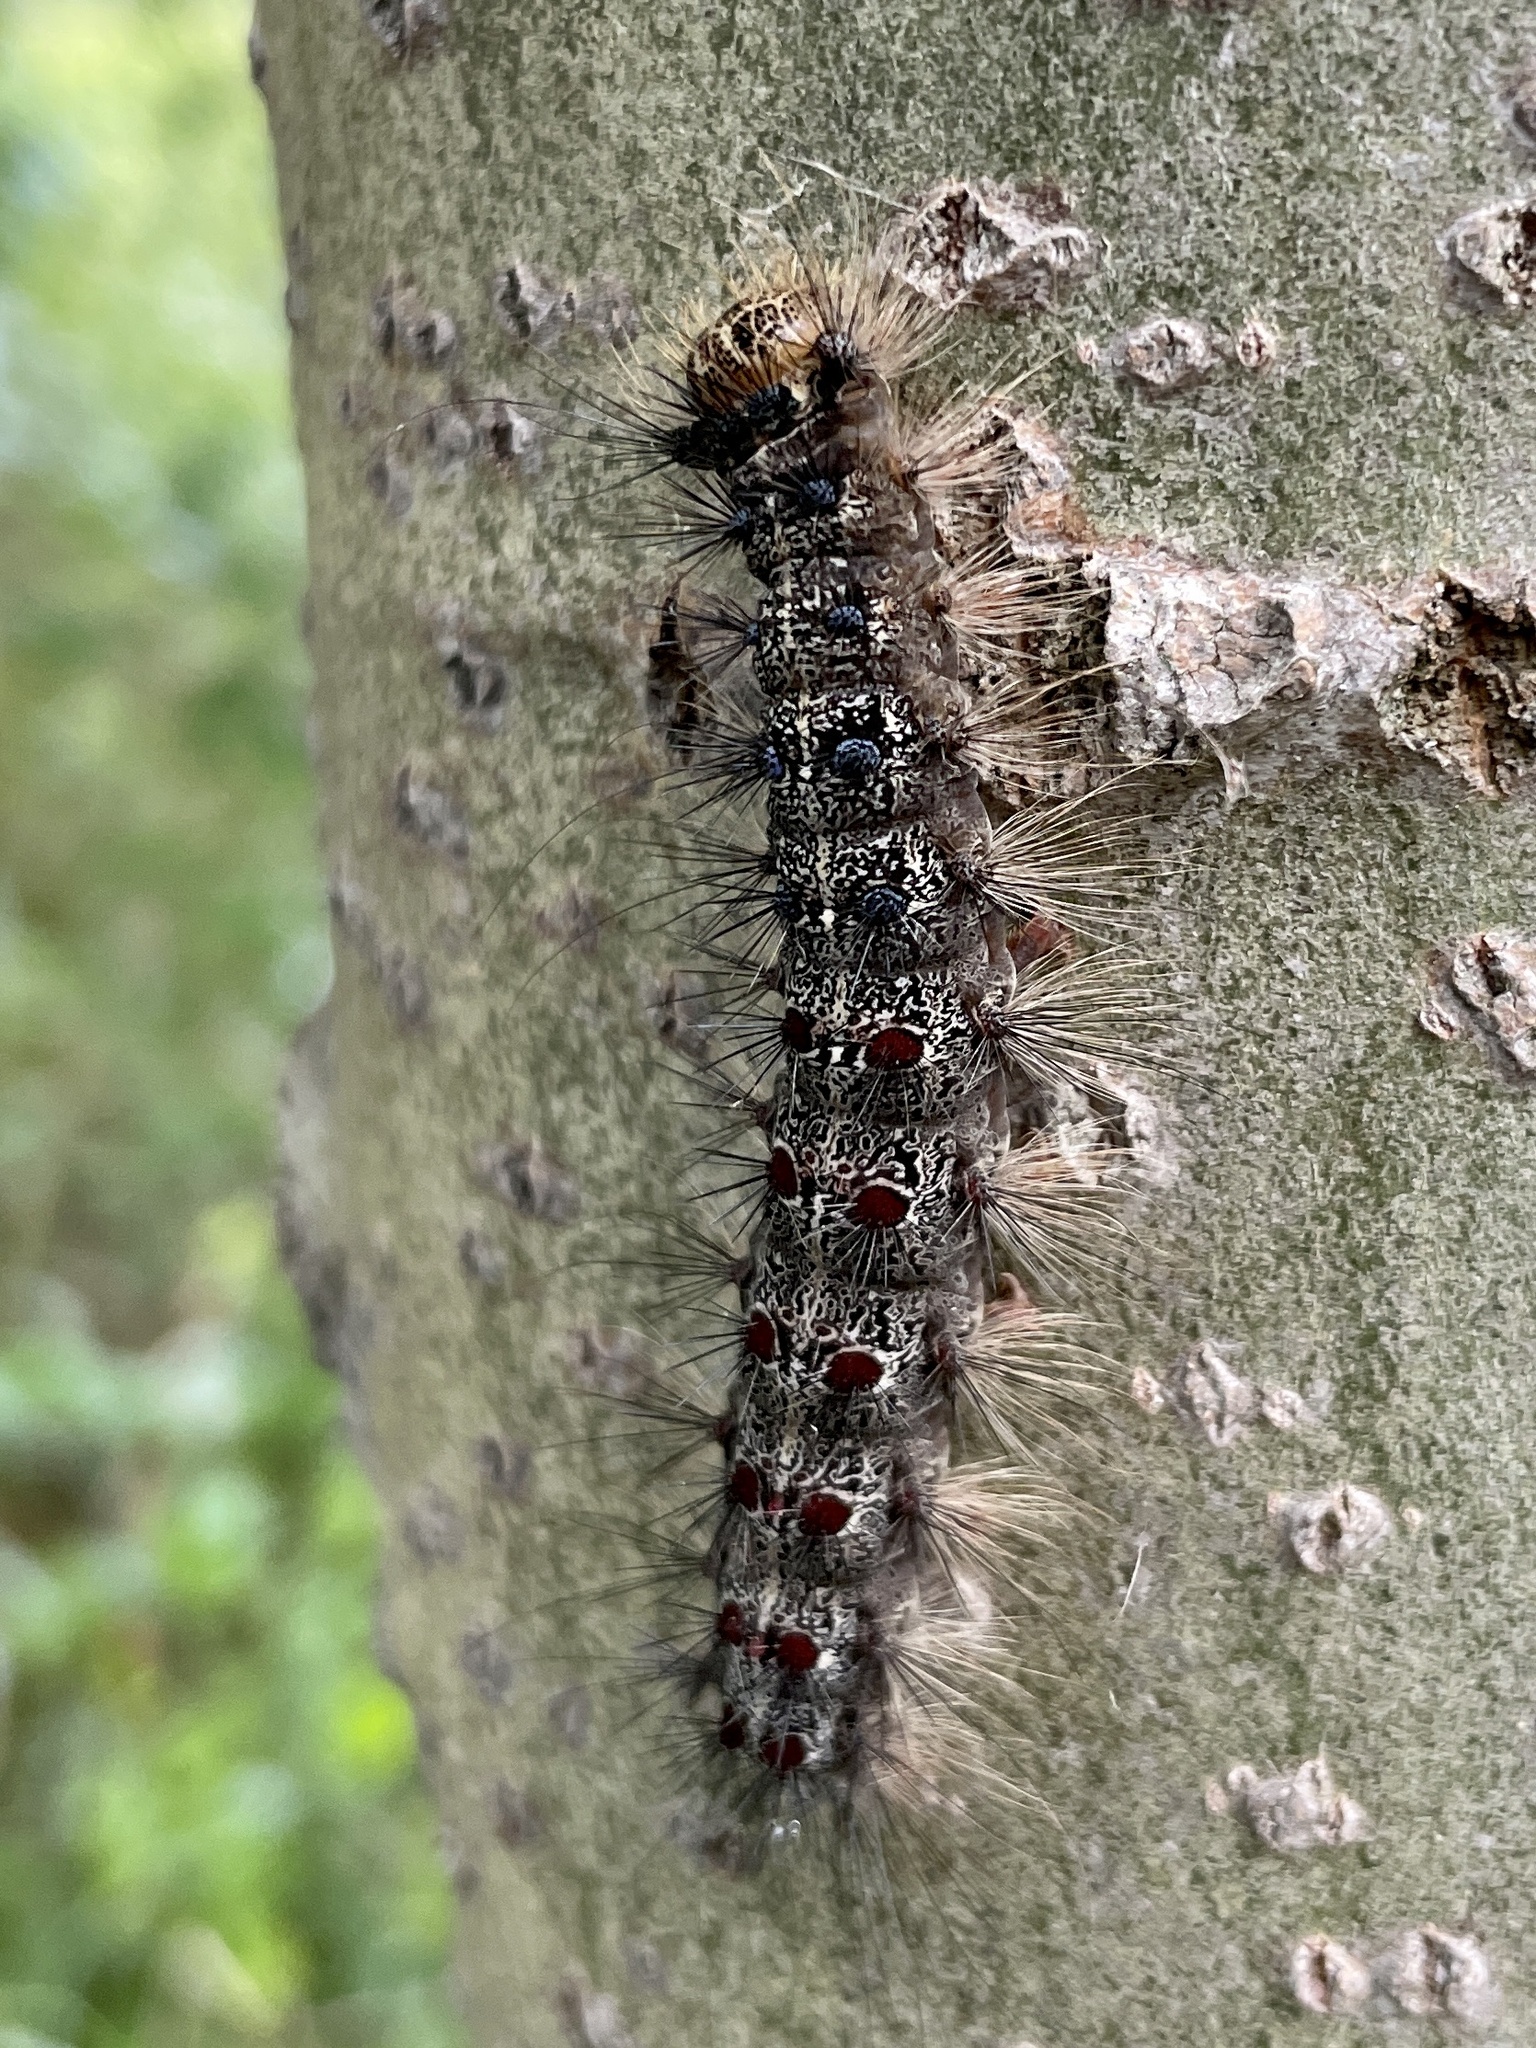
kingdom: Animalia
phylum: Arthropoda
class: Insecta
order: Lepidoptera
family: Erebidae
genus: Lymantria
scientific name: Lymantria dispar
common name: Gypsy moth
